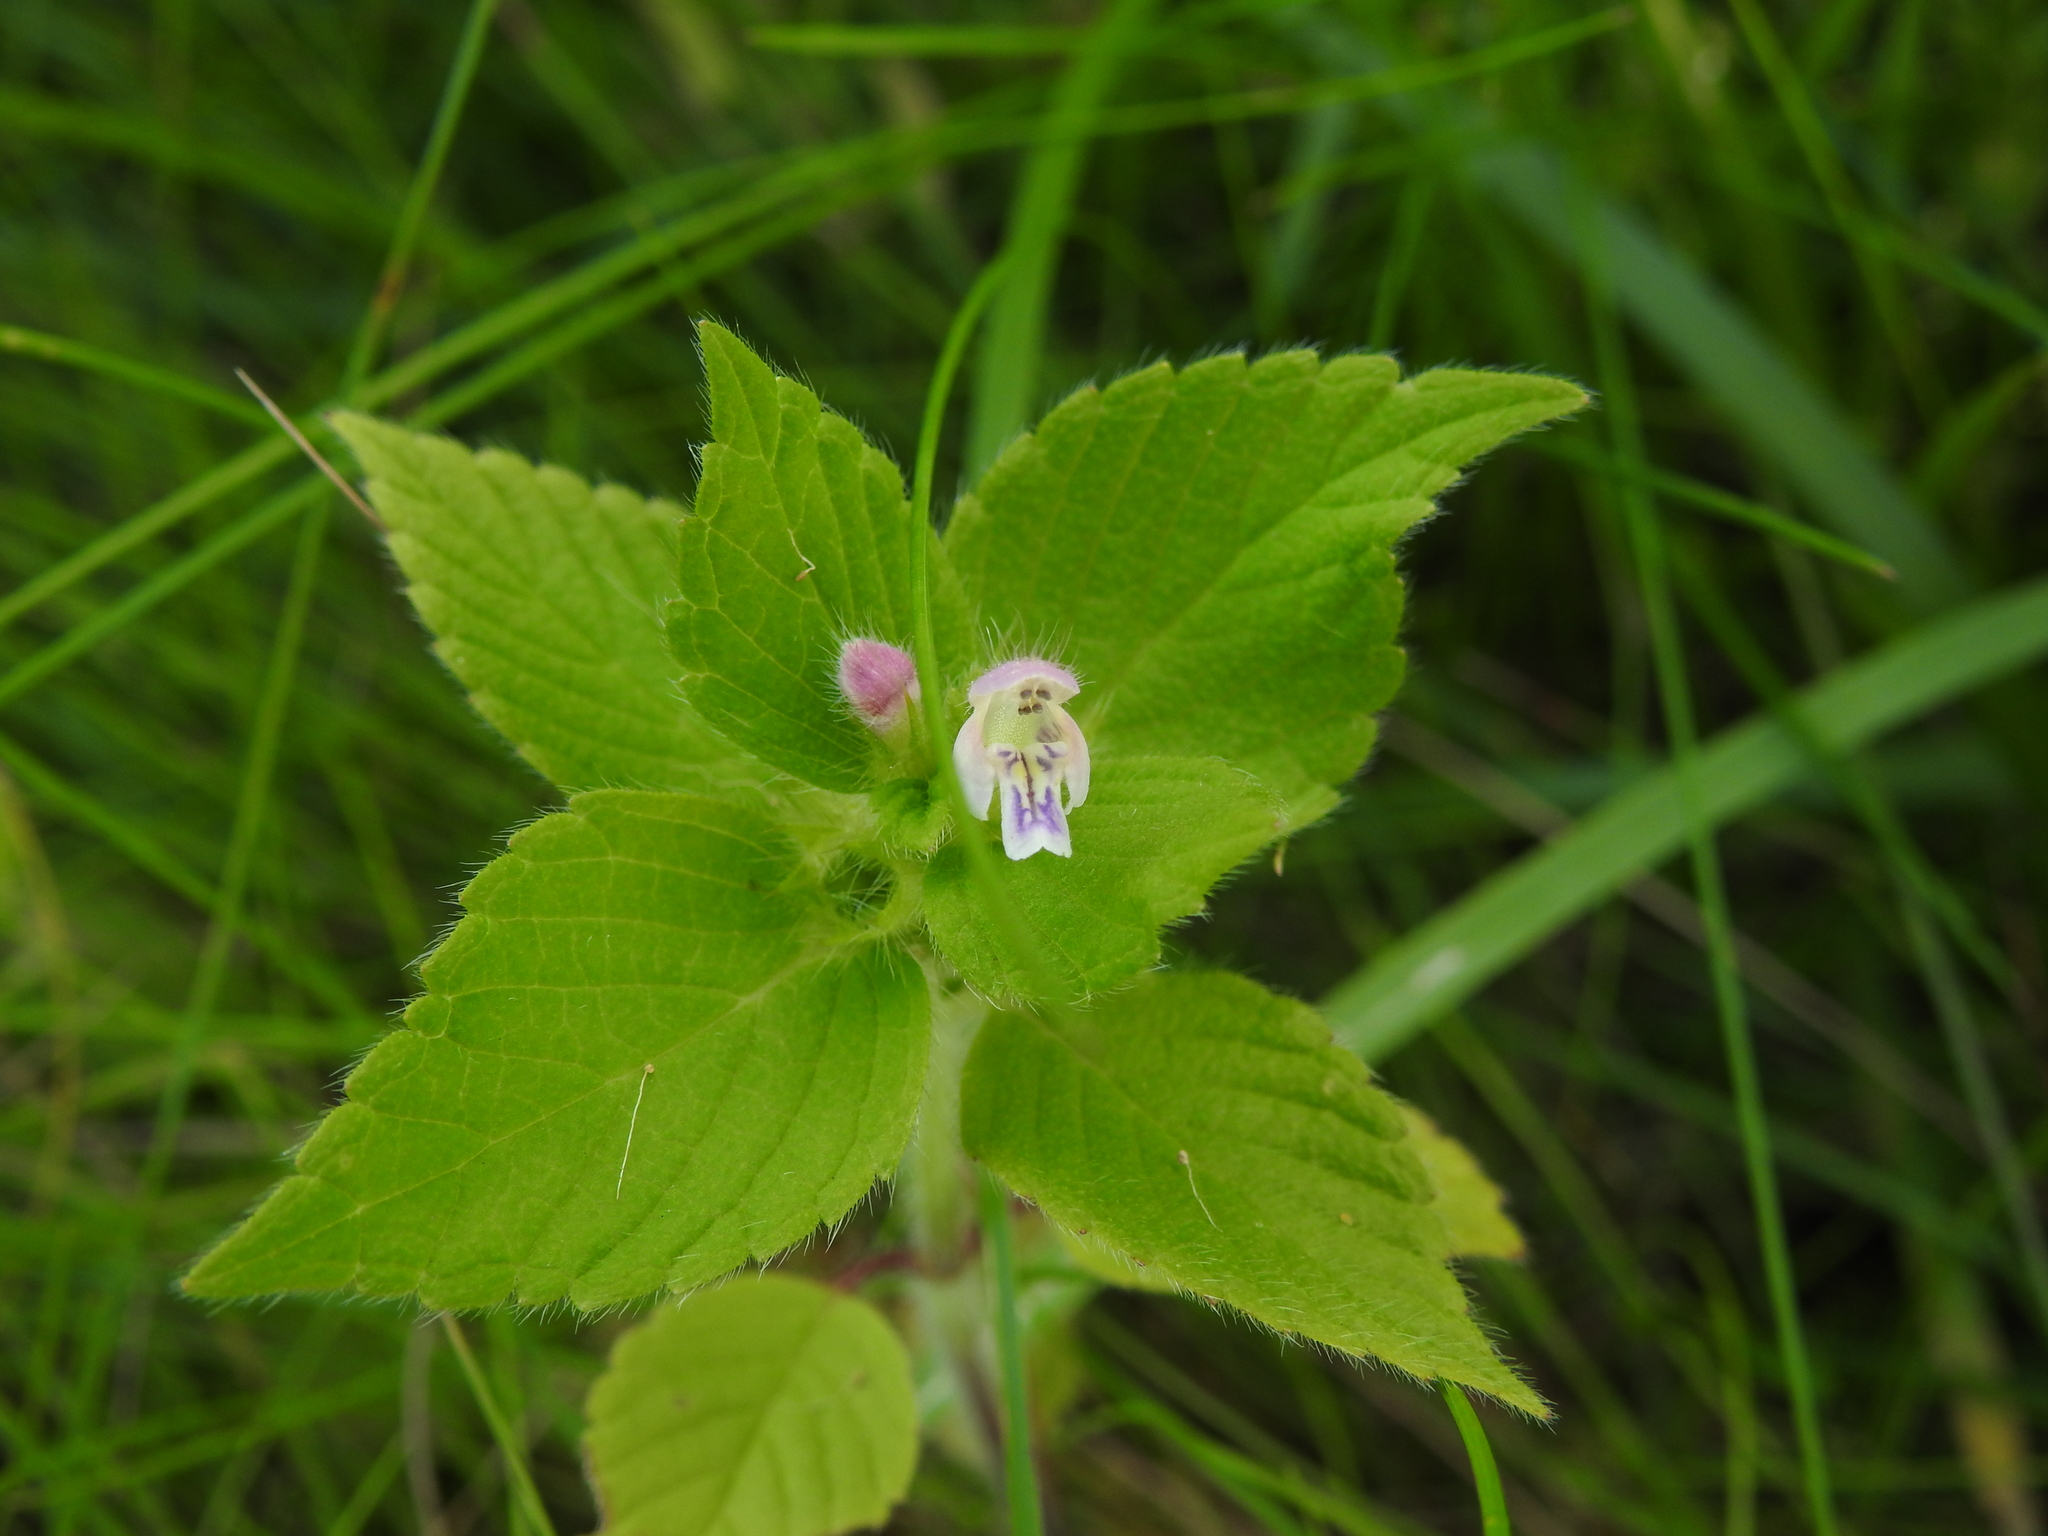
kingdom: Plantae
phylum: Tracheophyta
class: Magnoliopsida
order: Lamiales
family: Lamiaceae
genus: Galeopsis
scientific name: Galeopsis tetrahit
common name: Common hemp-nettle
